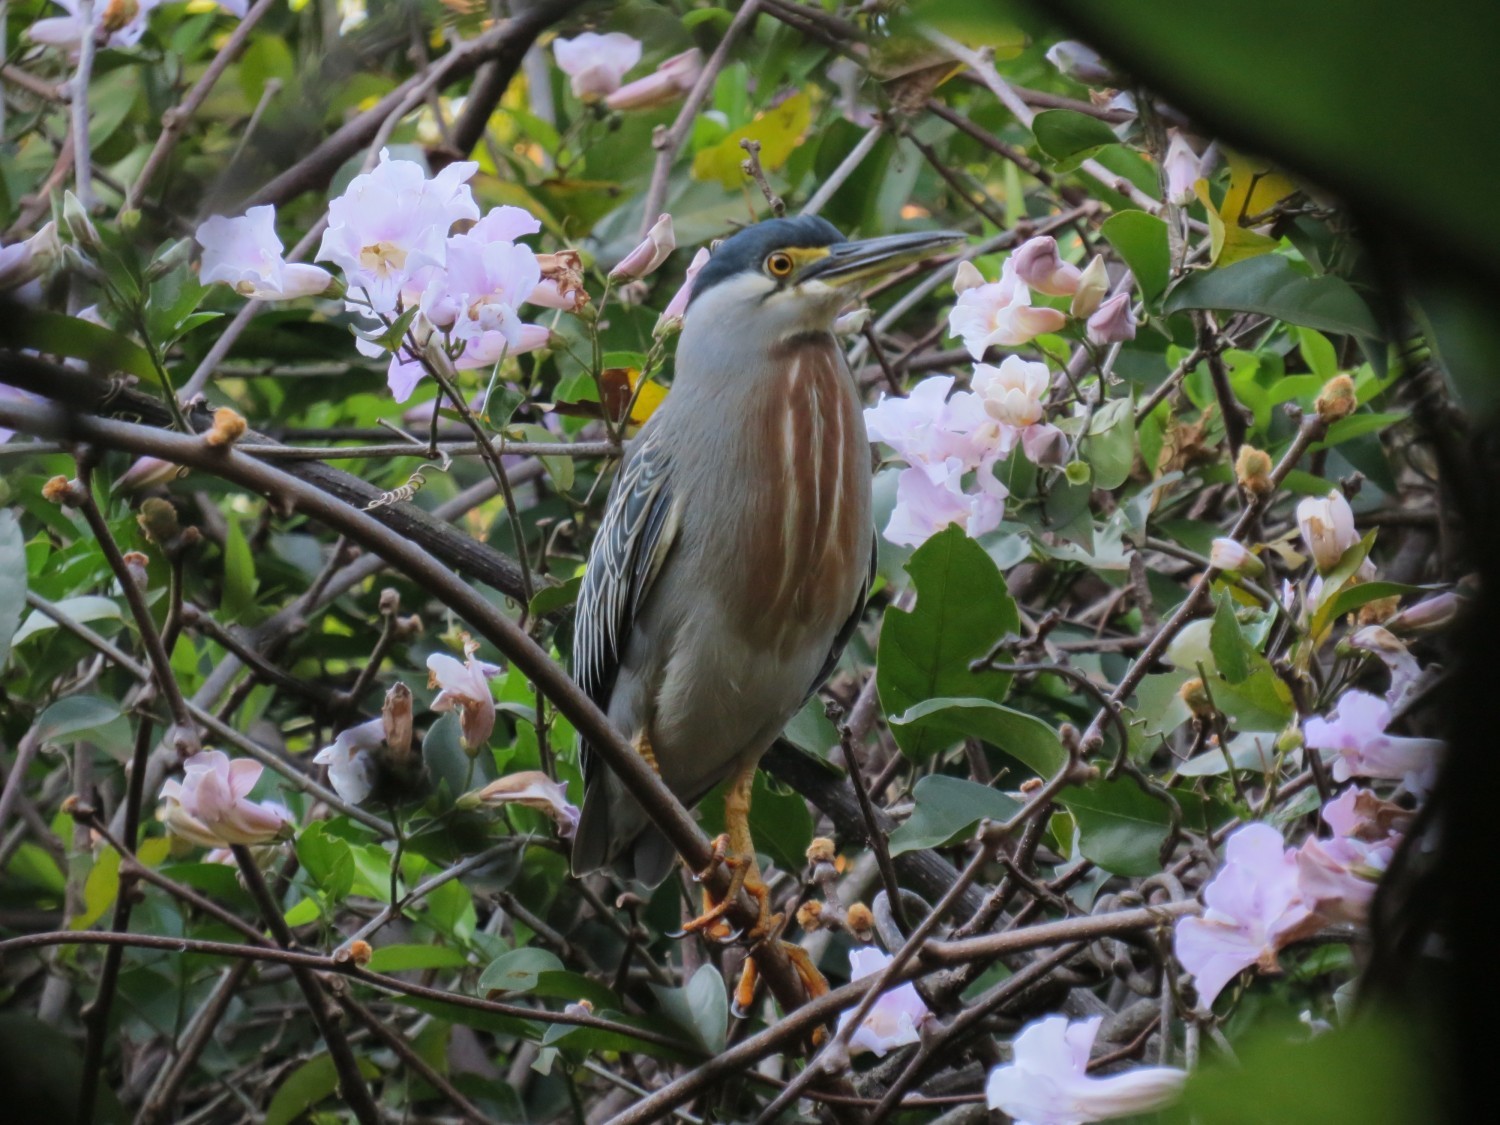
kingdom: Animalia
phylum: Chordata
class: Aves
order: Pelecaniformes
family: Ardeidae
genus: Butorides
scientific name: Butorides striata
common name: Striated heron
